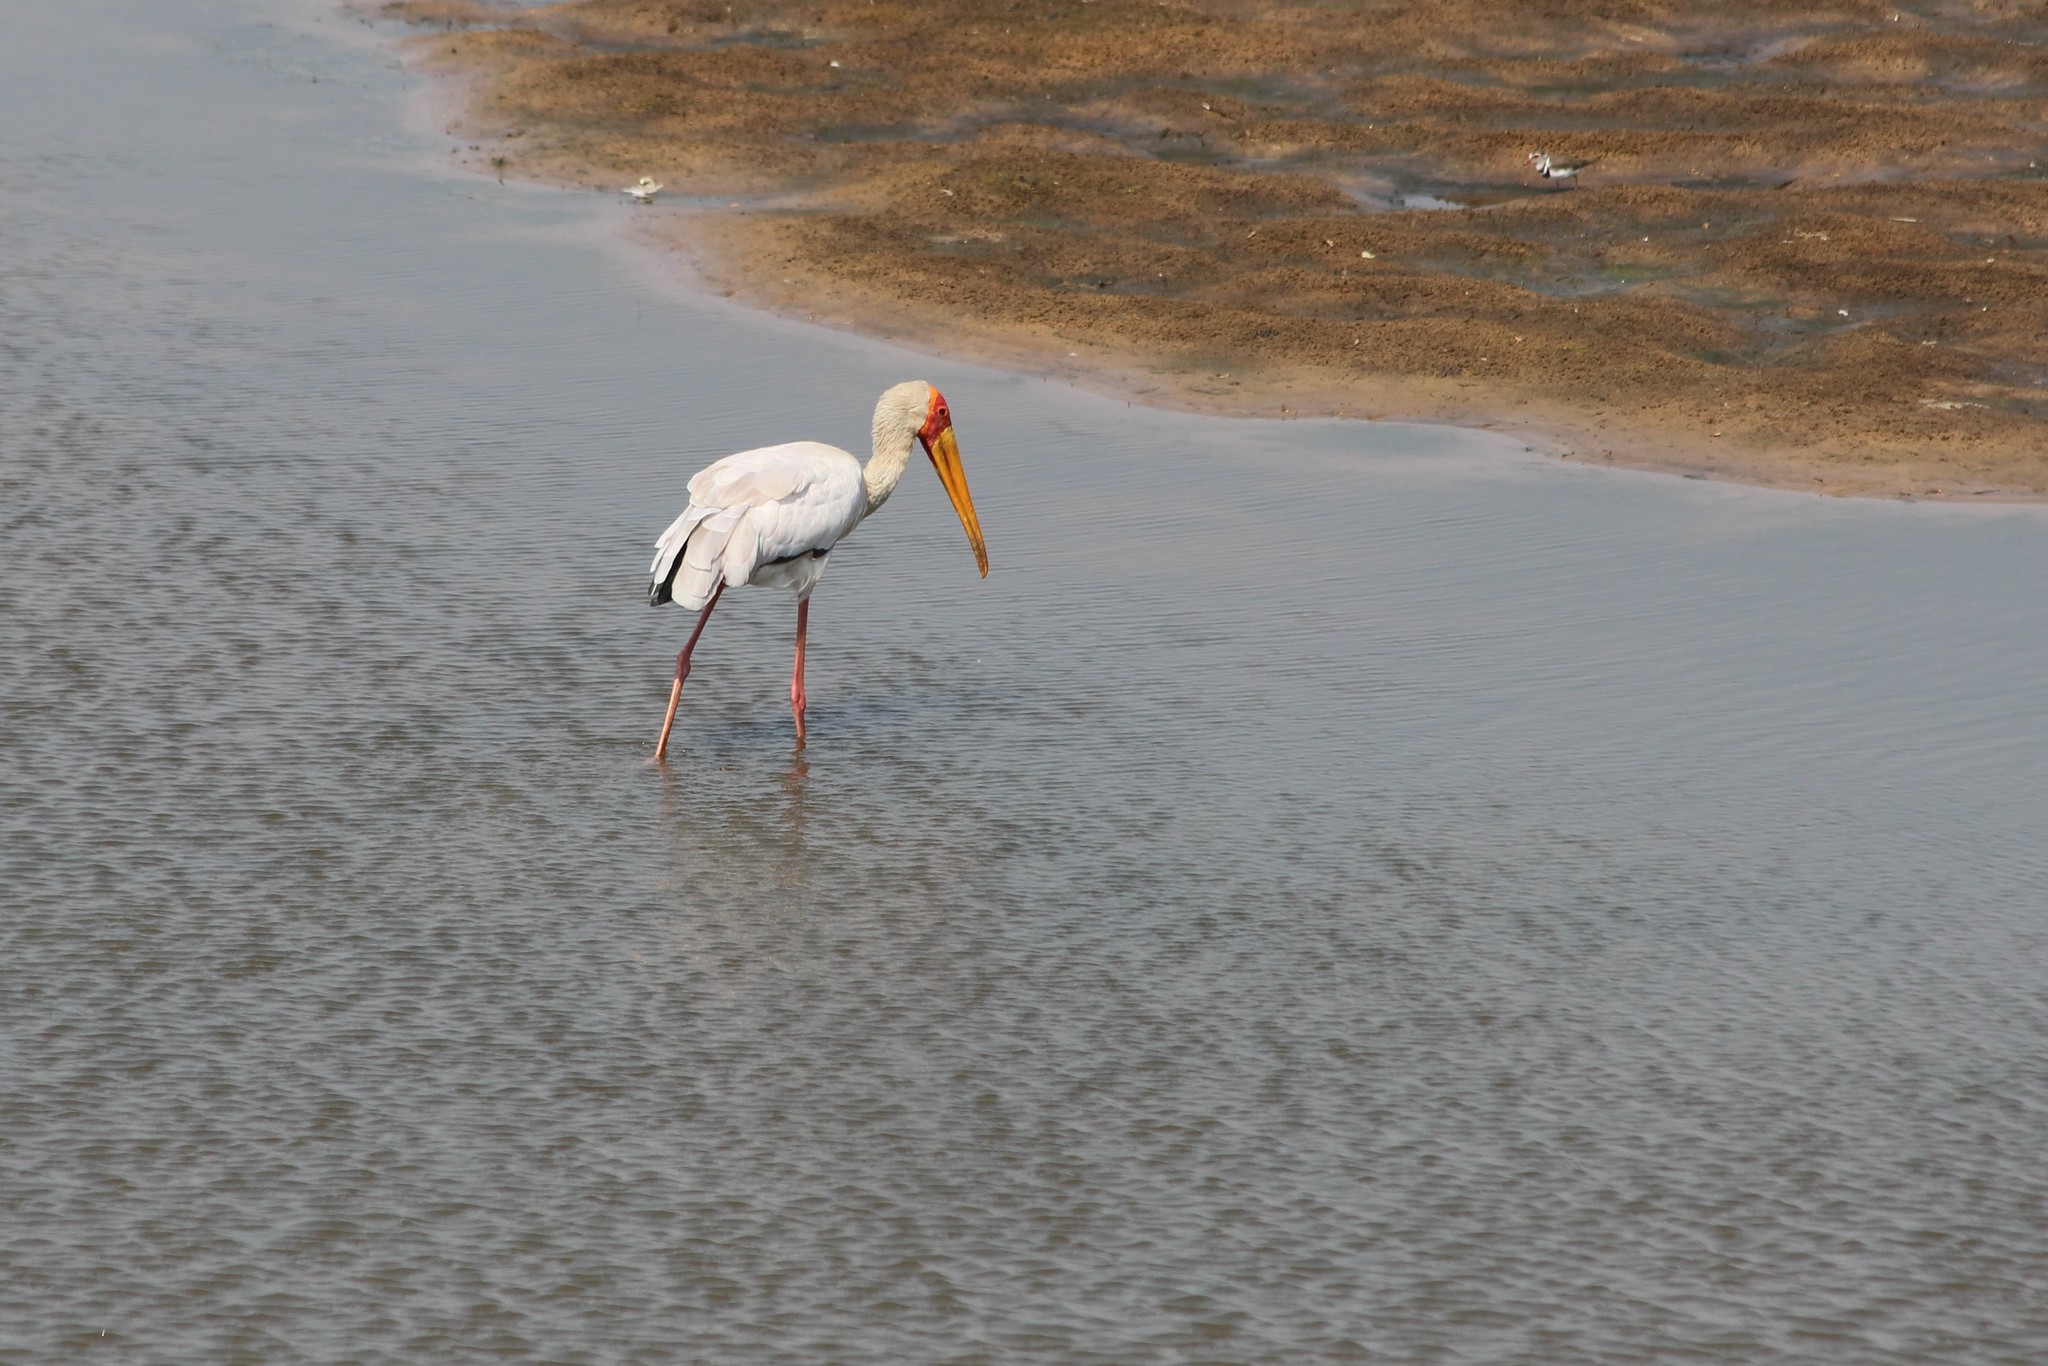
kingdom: Animalia
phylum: Chordata
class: Aves
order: Ciconiiformes
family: Ciconiidae
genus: Mycteria
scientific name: Mycteria ibis
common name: Yellow-billed stork
